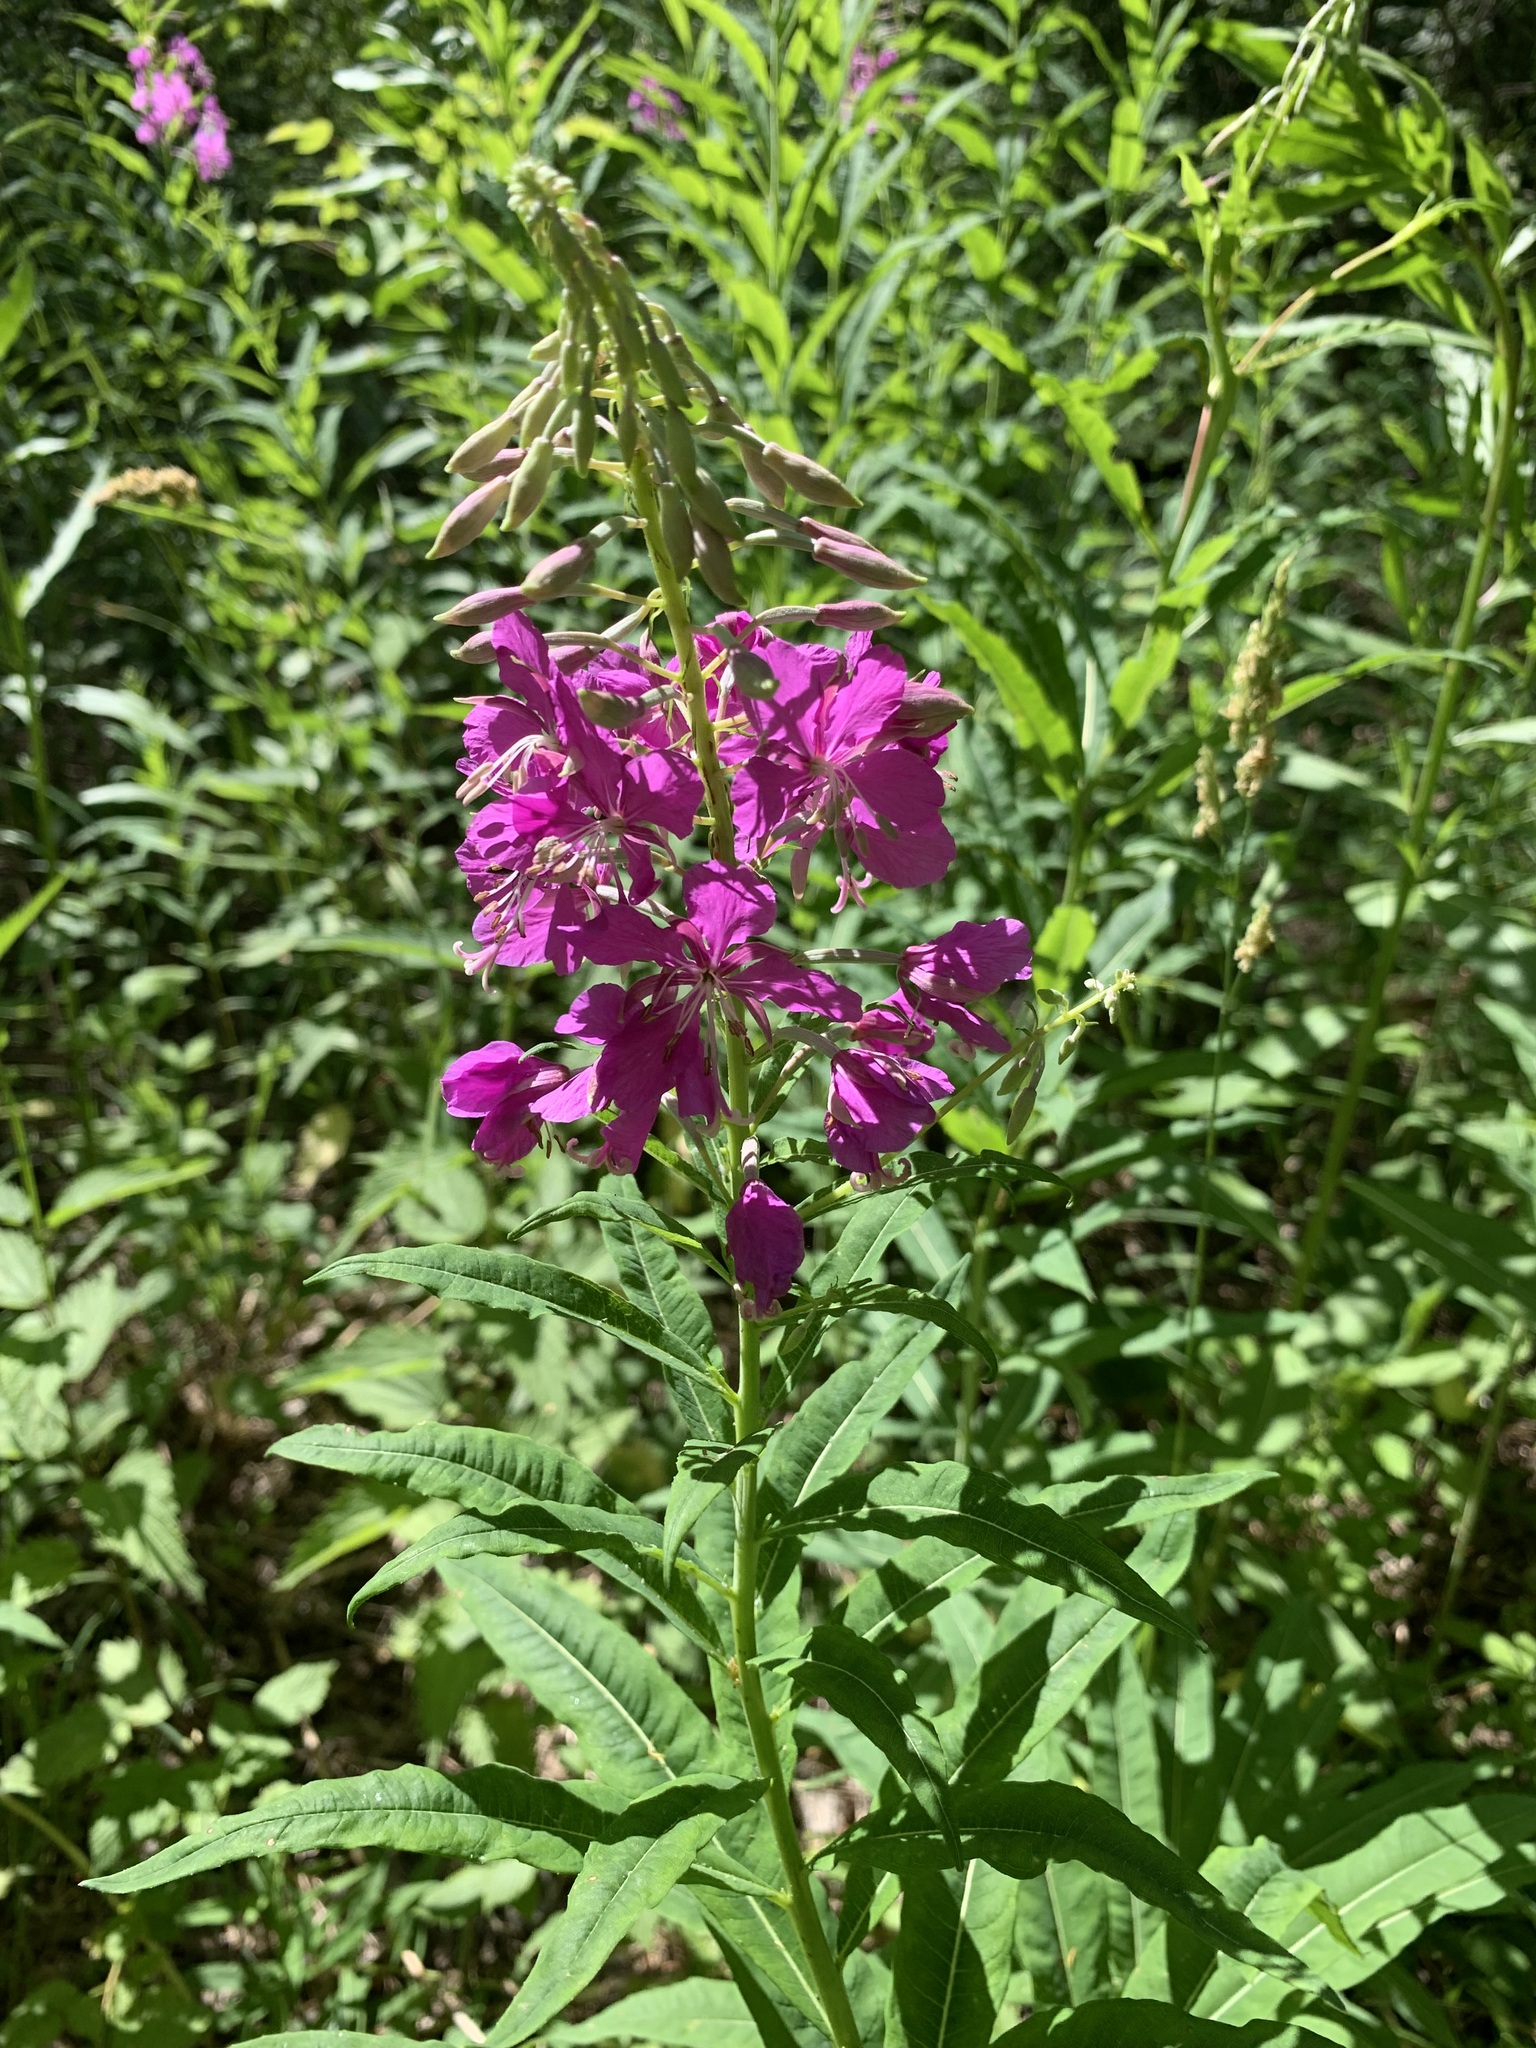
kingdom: Plantae
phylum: Tracheophyta
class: Magnoliopsida
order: Myrtales
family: Onagraceae
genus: Chamaenerion
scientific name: Chamaenerion angustifolium
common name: Fireweed
